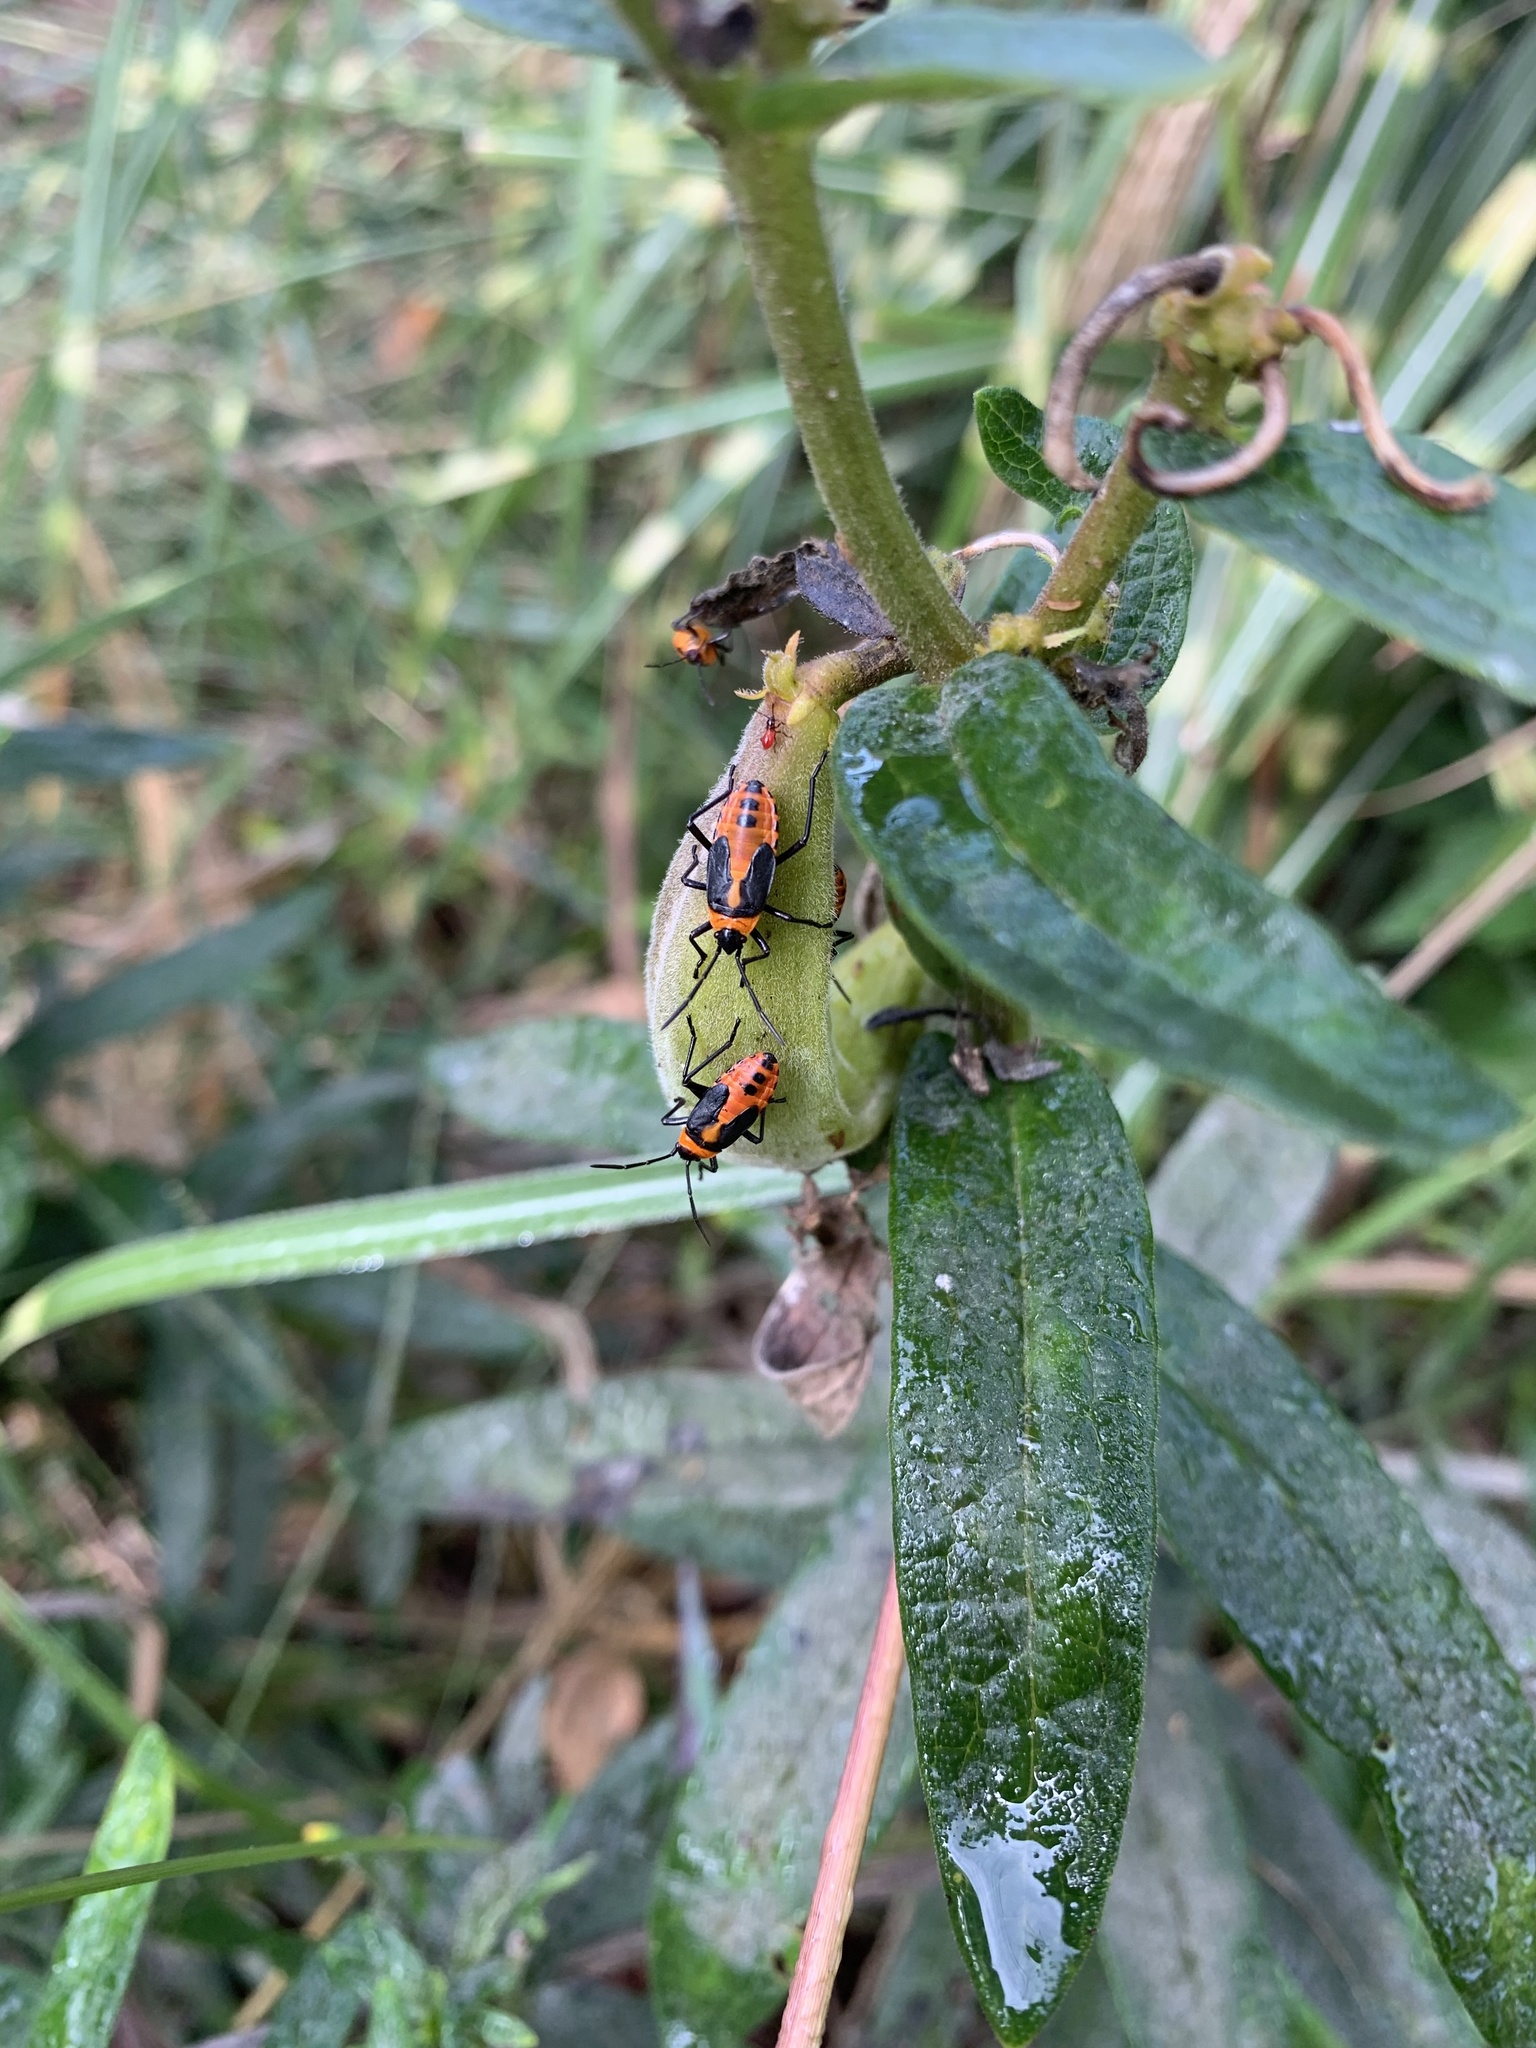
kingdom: Animalia
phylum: Arthropoda
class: Insecta
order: Hemiptera
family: Lygaeidae
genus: Oncopeltus
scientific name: Oncopeltus fasciatus
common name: Large milkweed bug
